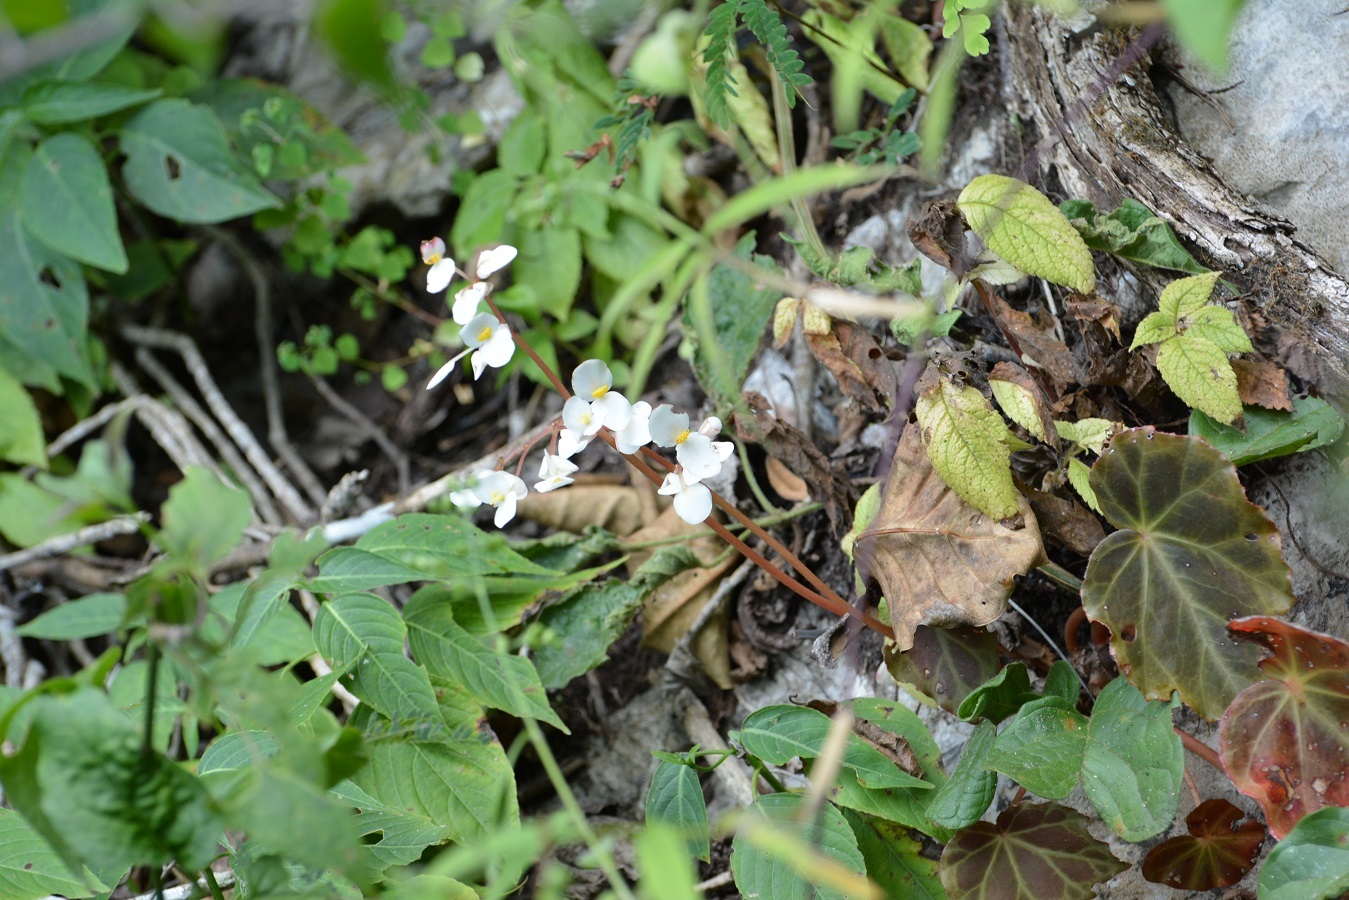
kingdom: Plantae
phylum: Tracheophyta
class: Magnoliopsida
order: Cucurbitales
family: Begoniaceae
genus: Begonia
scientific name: Begonia sericoneura
